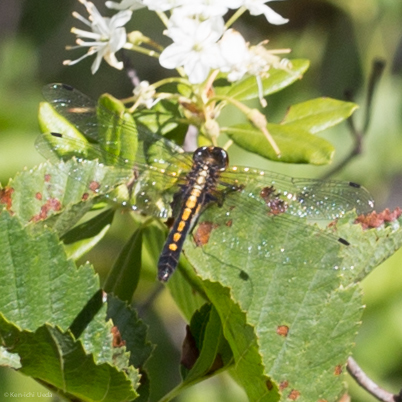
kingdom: Animalia
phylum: Arthropoda
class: Insecta
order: Odonata
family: Libellulidae
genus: Leucorrhinia
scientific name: Leucorrhinia intacta
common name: Dot-tailed whiteface
